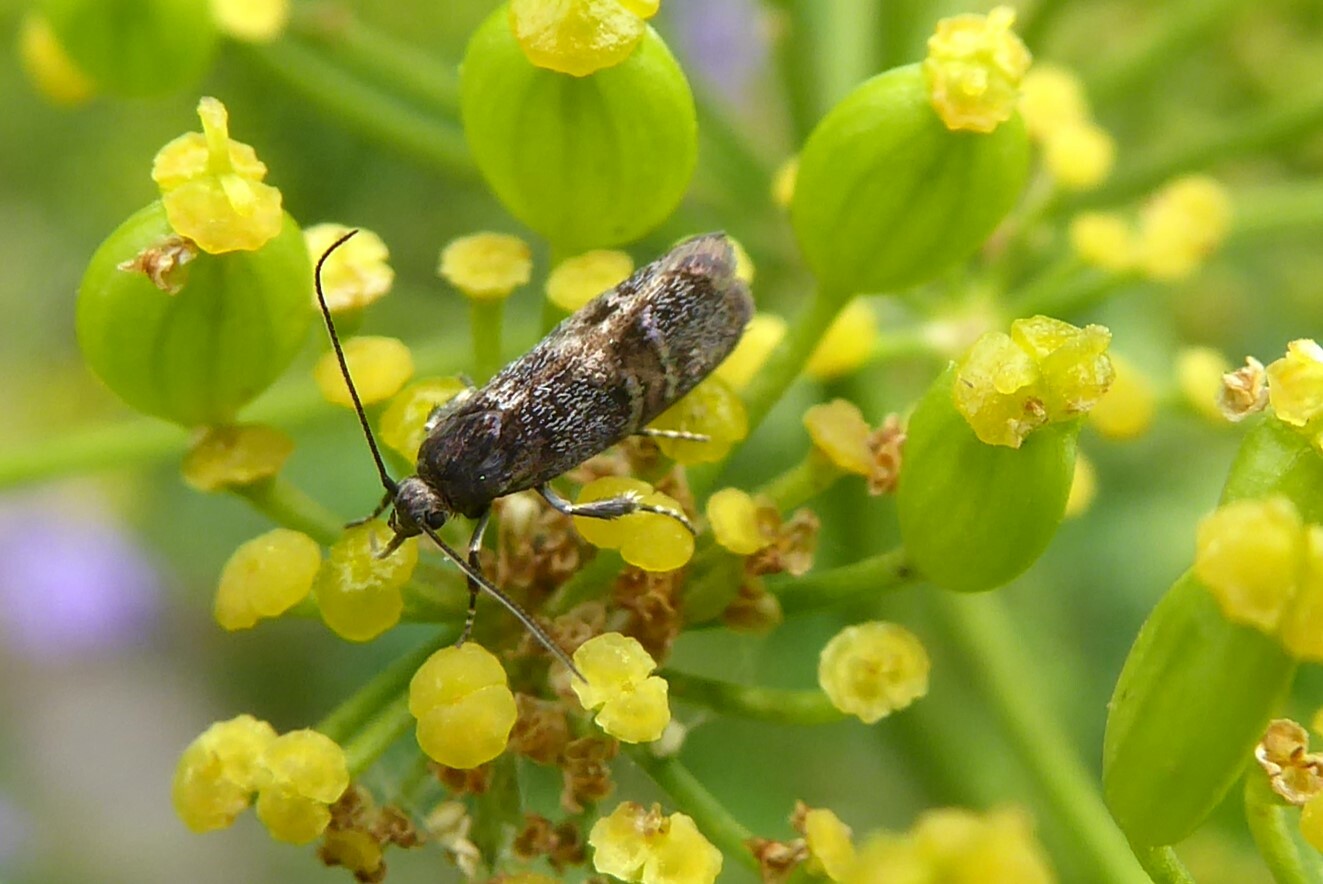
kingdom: Animalia
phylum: Arthropoda
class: Insecta
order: Lepidoptera
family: Oecophoridae
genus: Hierodoris
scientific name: Hierodoris torrida
